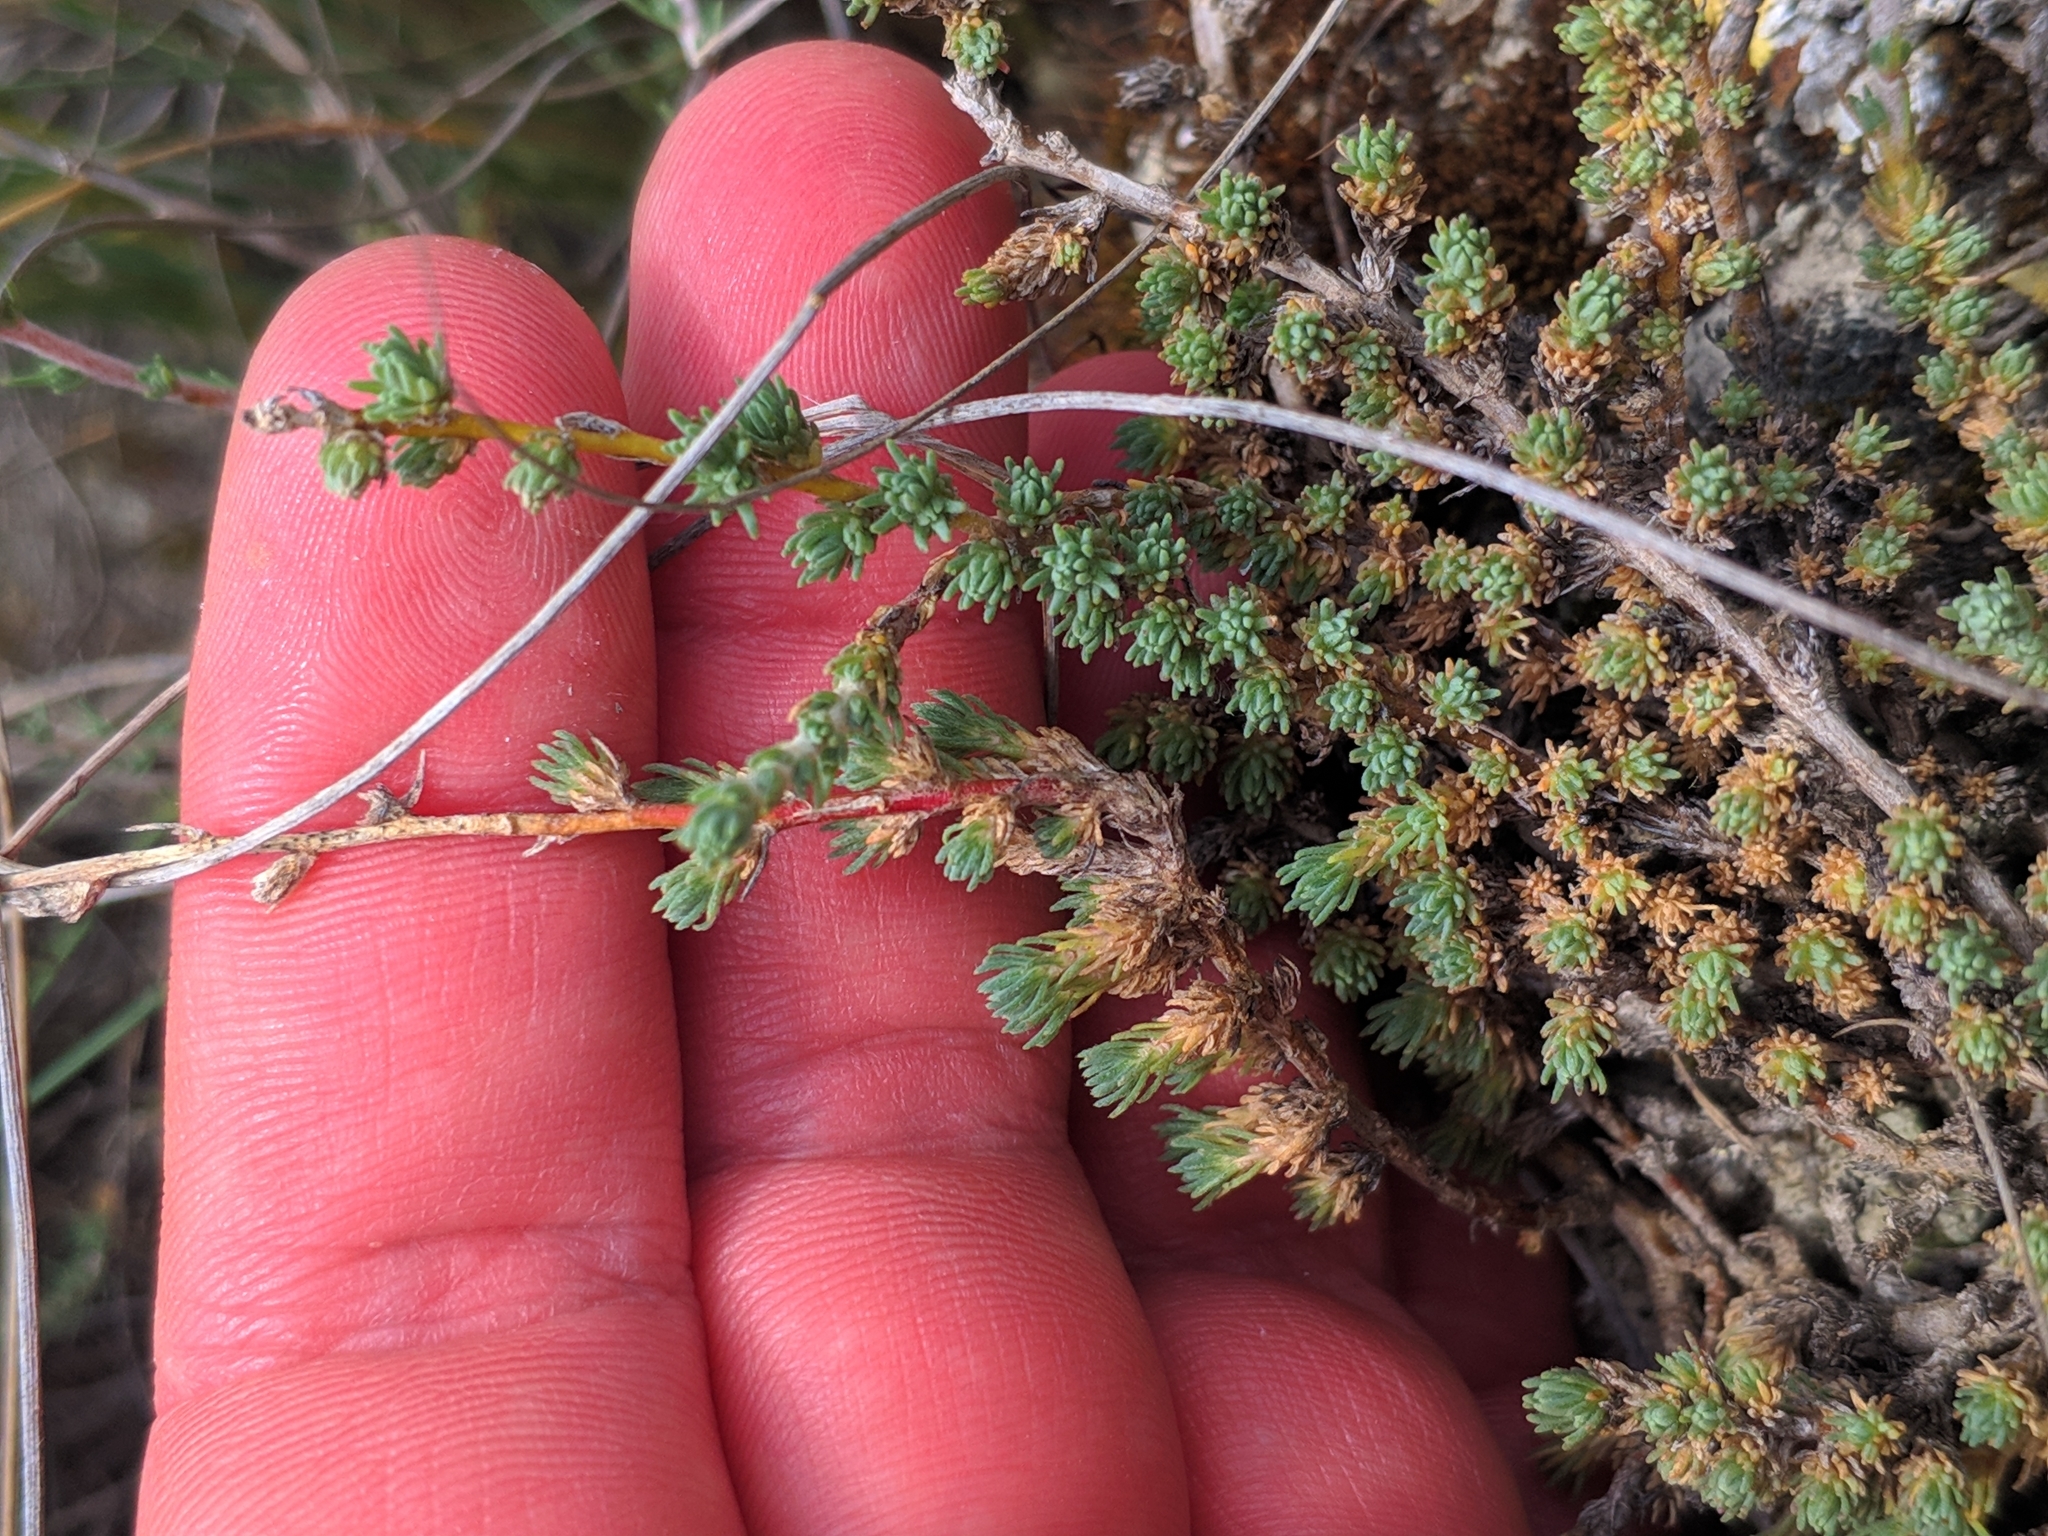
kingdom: Plantae
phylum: Tracheophyta
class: Magnoliopsida
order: Caryophyllales
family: Amaranthaceae
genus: Camphorosma
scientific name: Camphorosma monspeliaca
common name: Camphorfume
